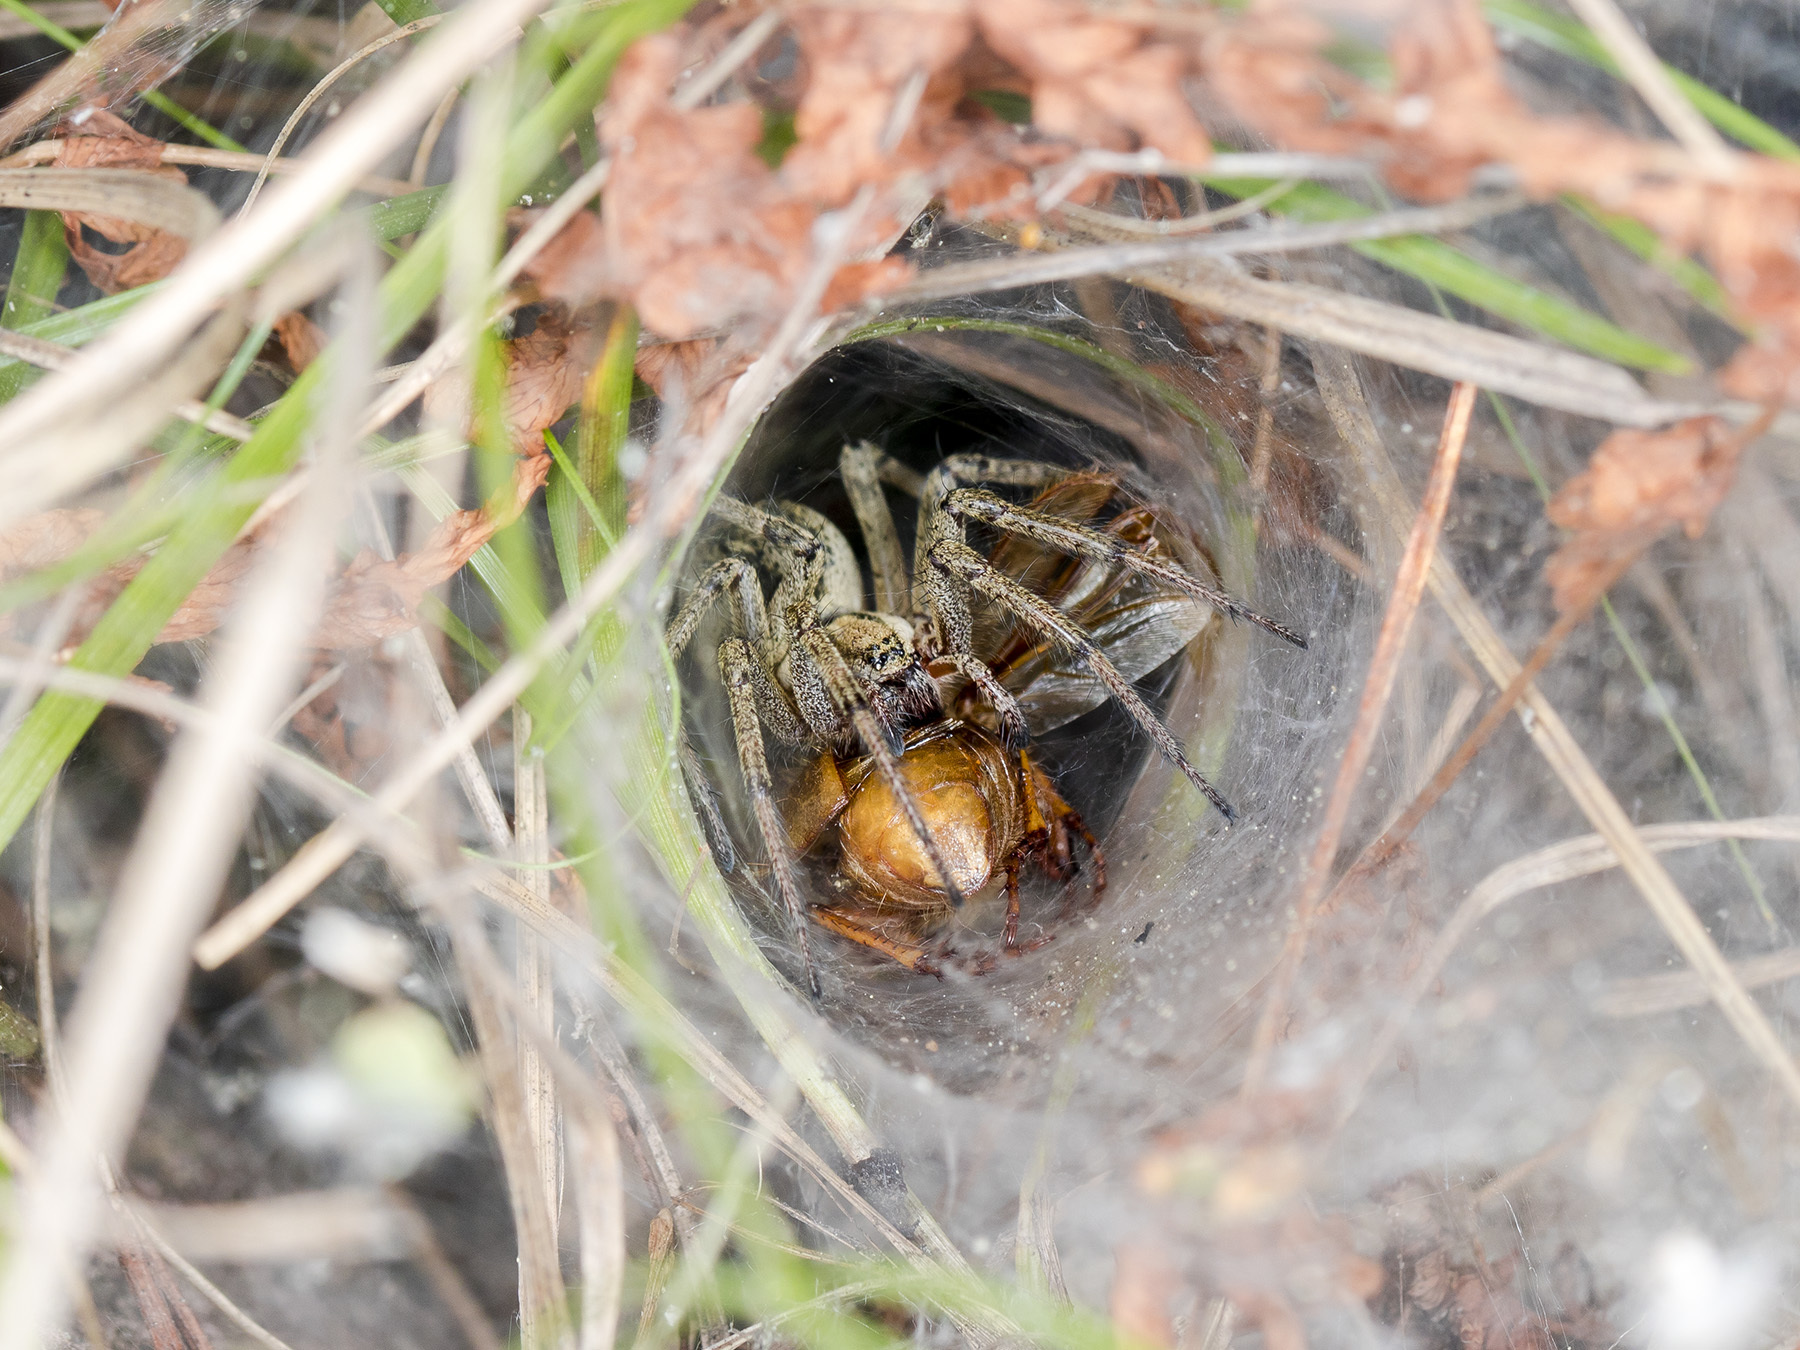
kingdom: Animalia
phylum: Arthropoda
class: Arachnida
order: Araneae
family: Agelenidae
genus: Agelena
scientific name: Agelena labyrinthica
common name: Labyrinth spider
